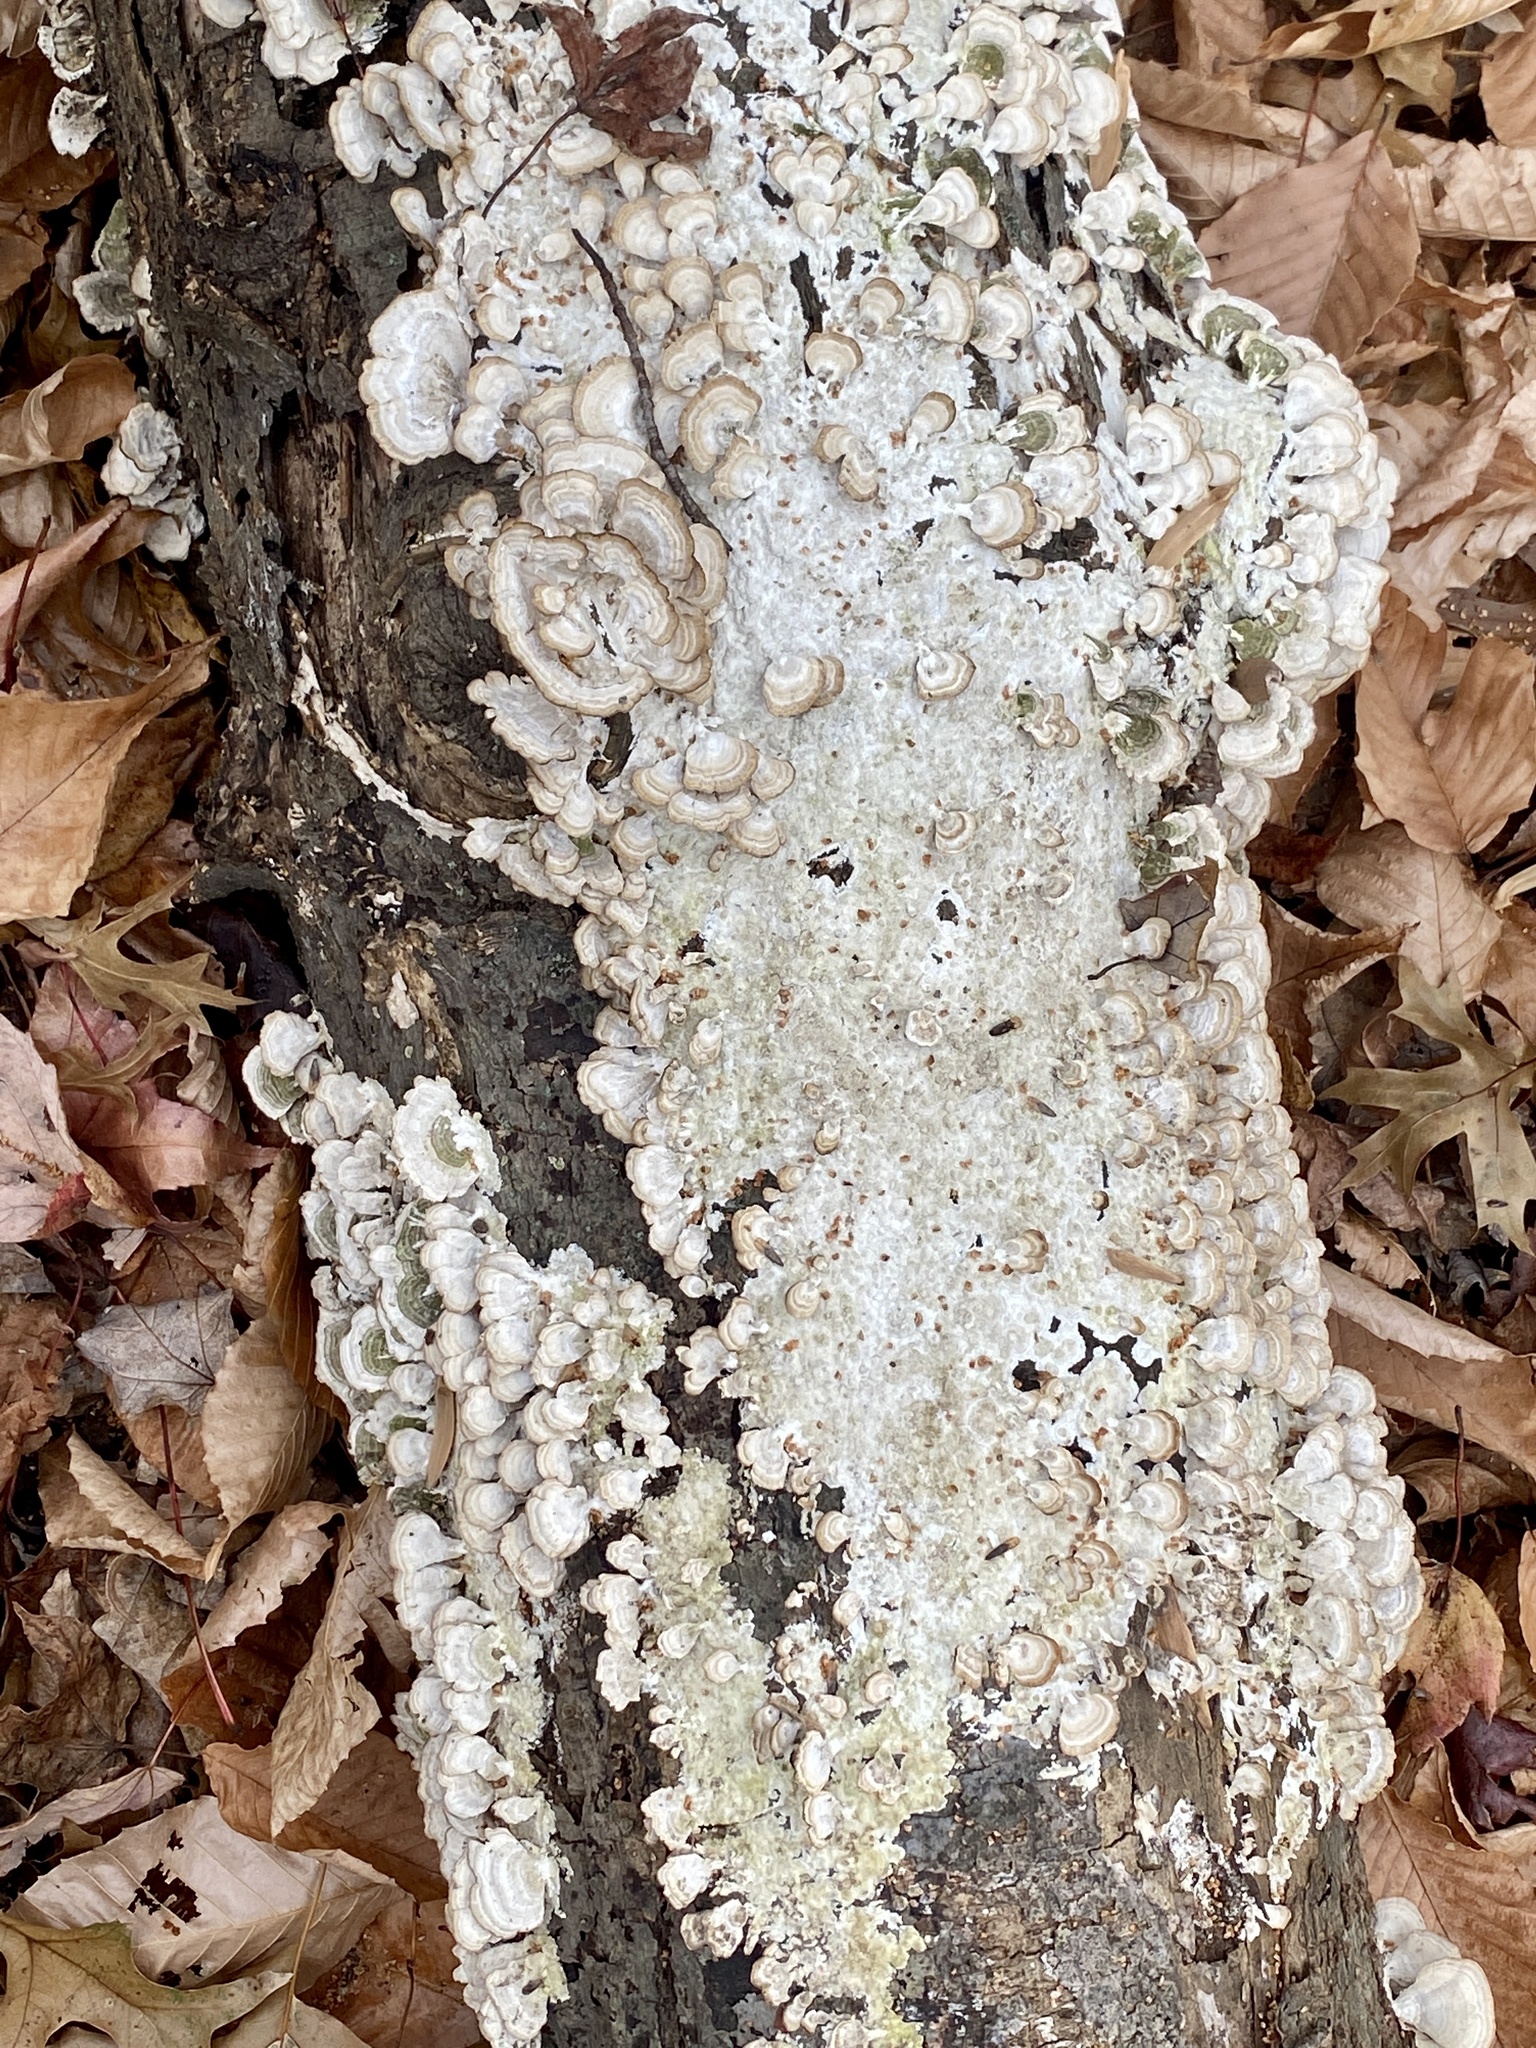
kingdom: Fungi
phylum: Basidiomycota
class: Agaricomycetes
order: Hymenochaetales
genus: Trichaptum
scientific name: Trichaptum biforme
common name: Violet-toothed polypore
